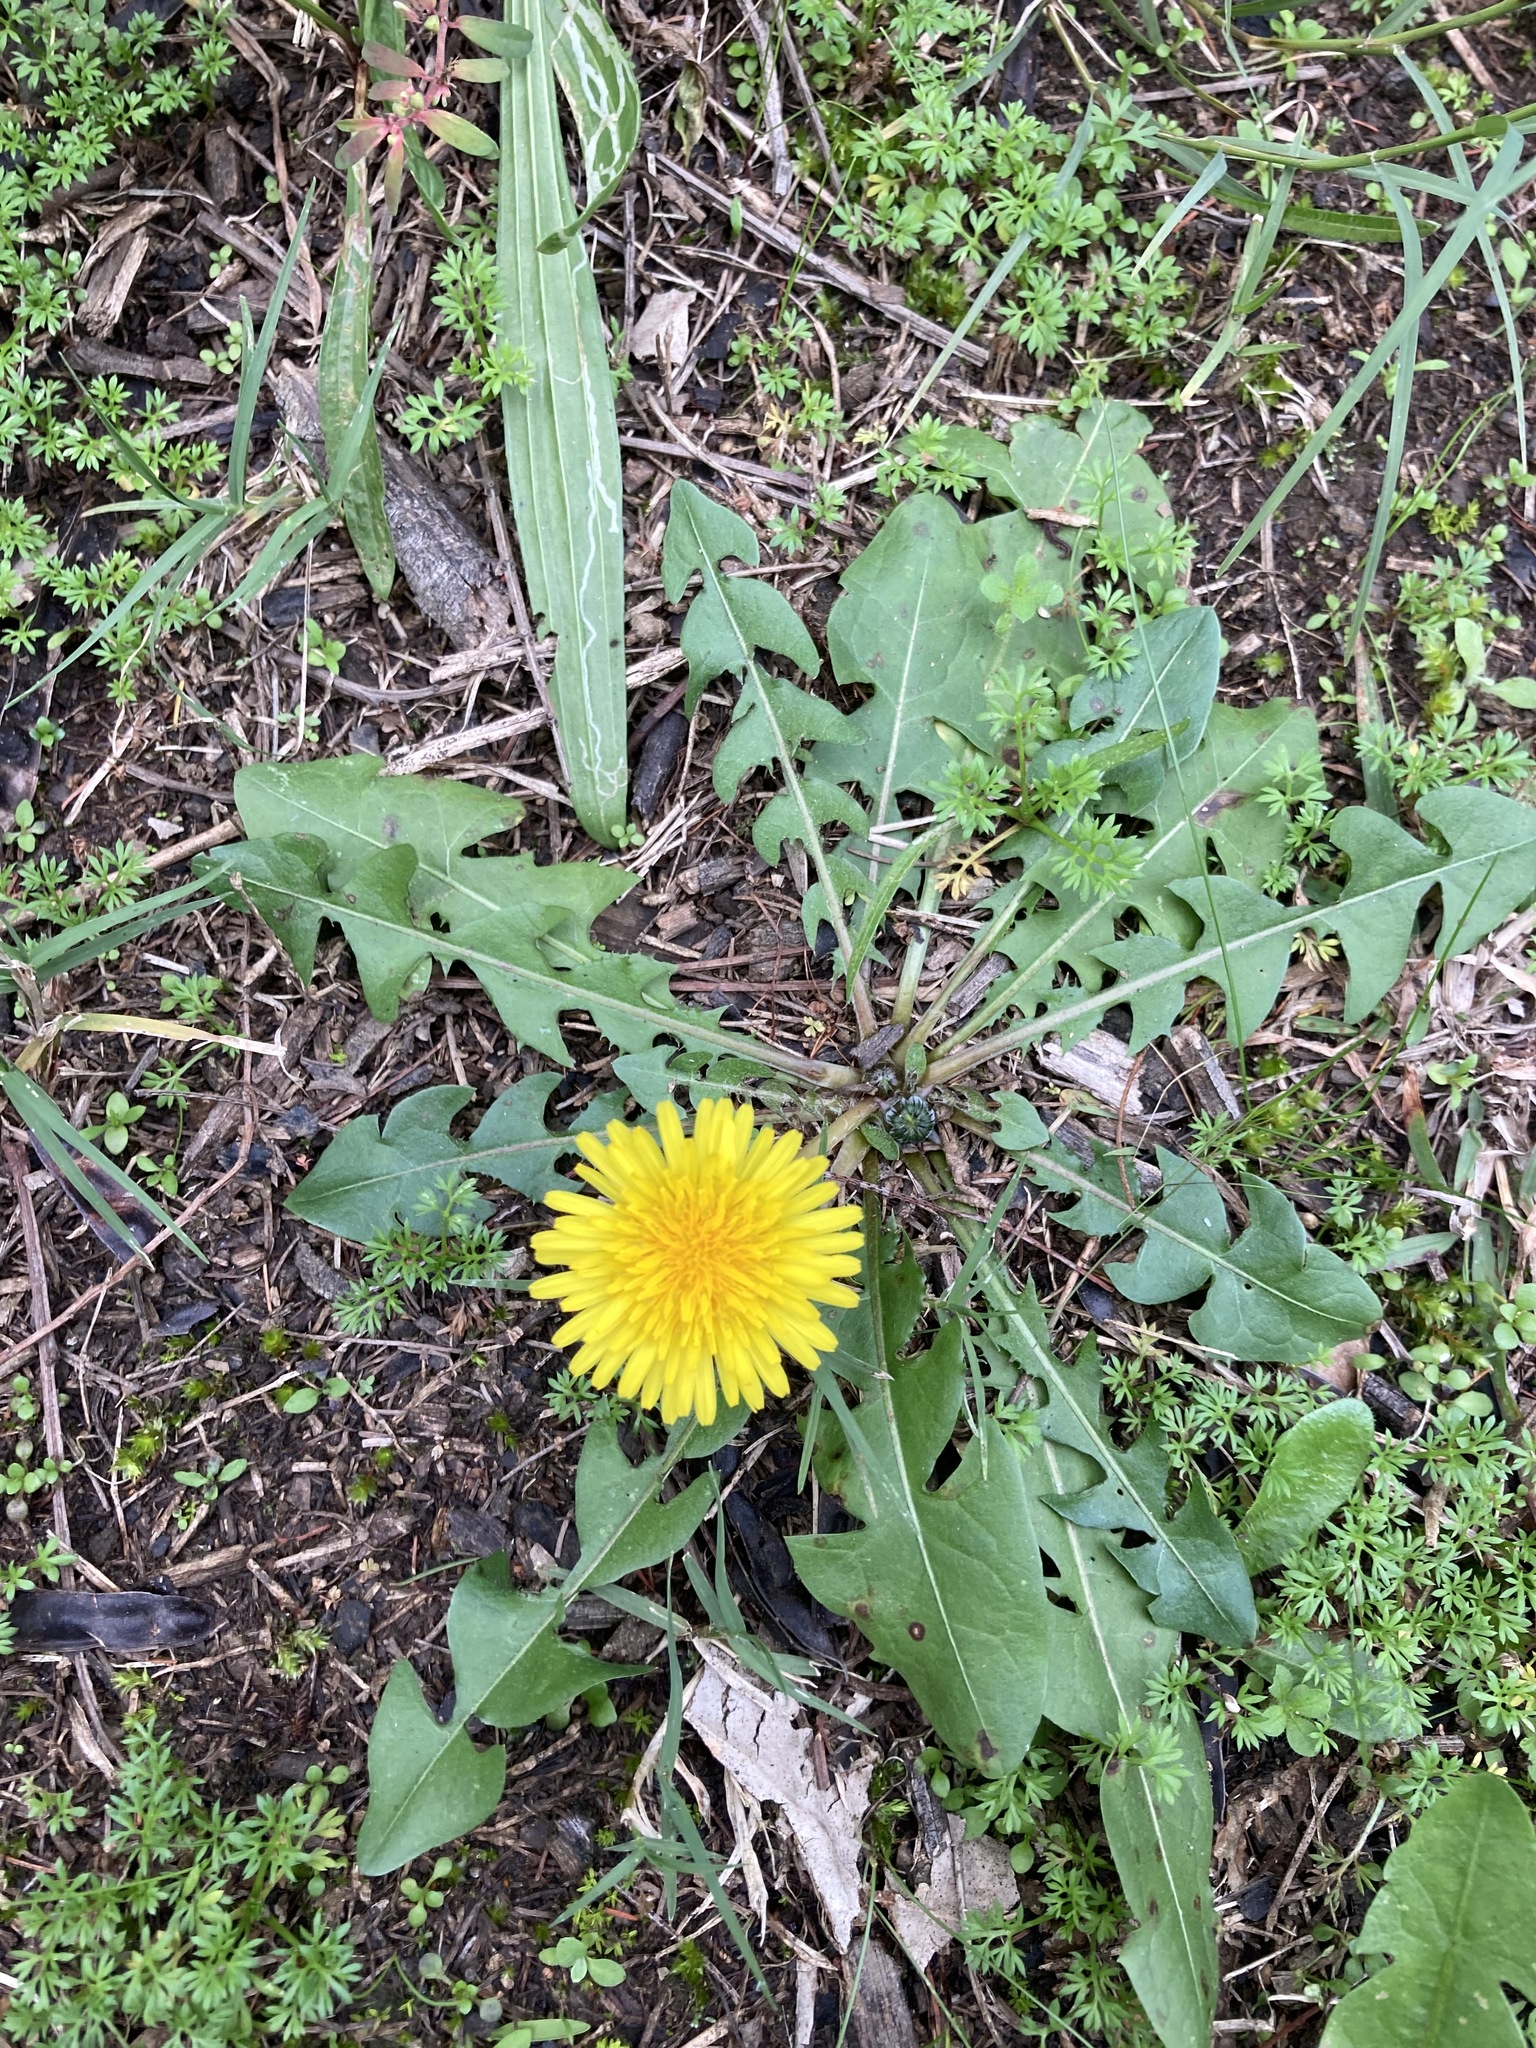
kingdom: Plantae
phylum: Tracheophyta
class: Magnoliopsida
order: Asterales
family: Asteraceae
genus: Taraxacum
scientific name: Taraxacum officinale
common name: Common dandelion
